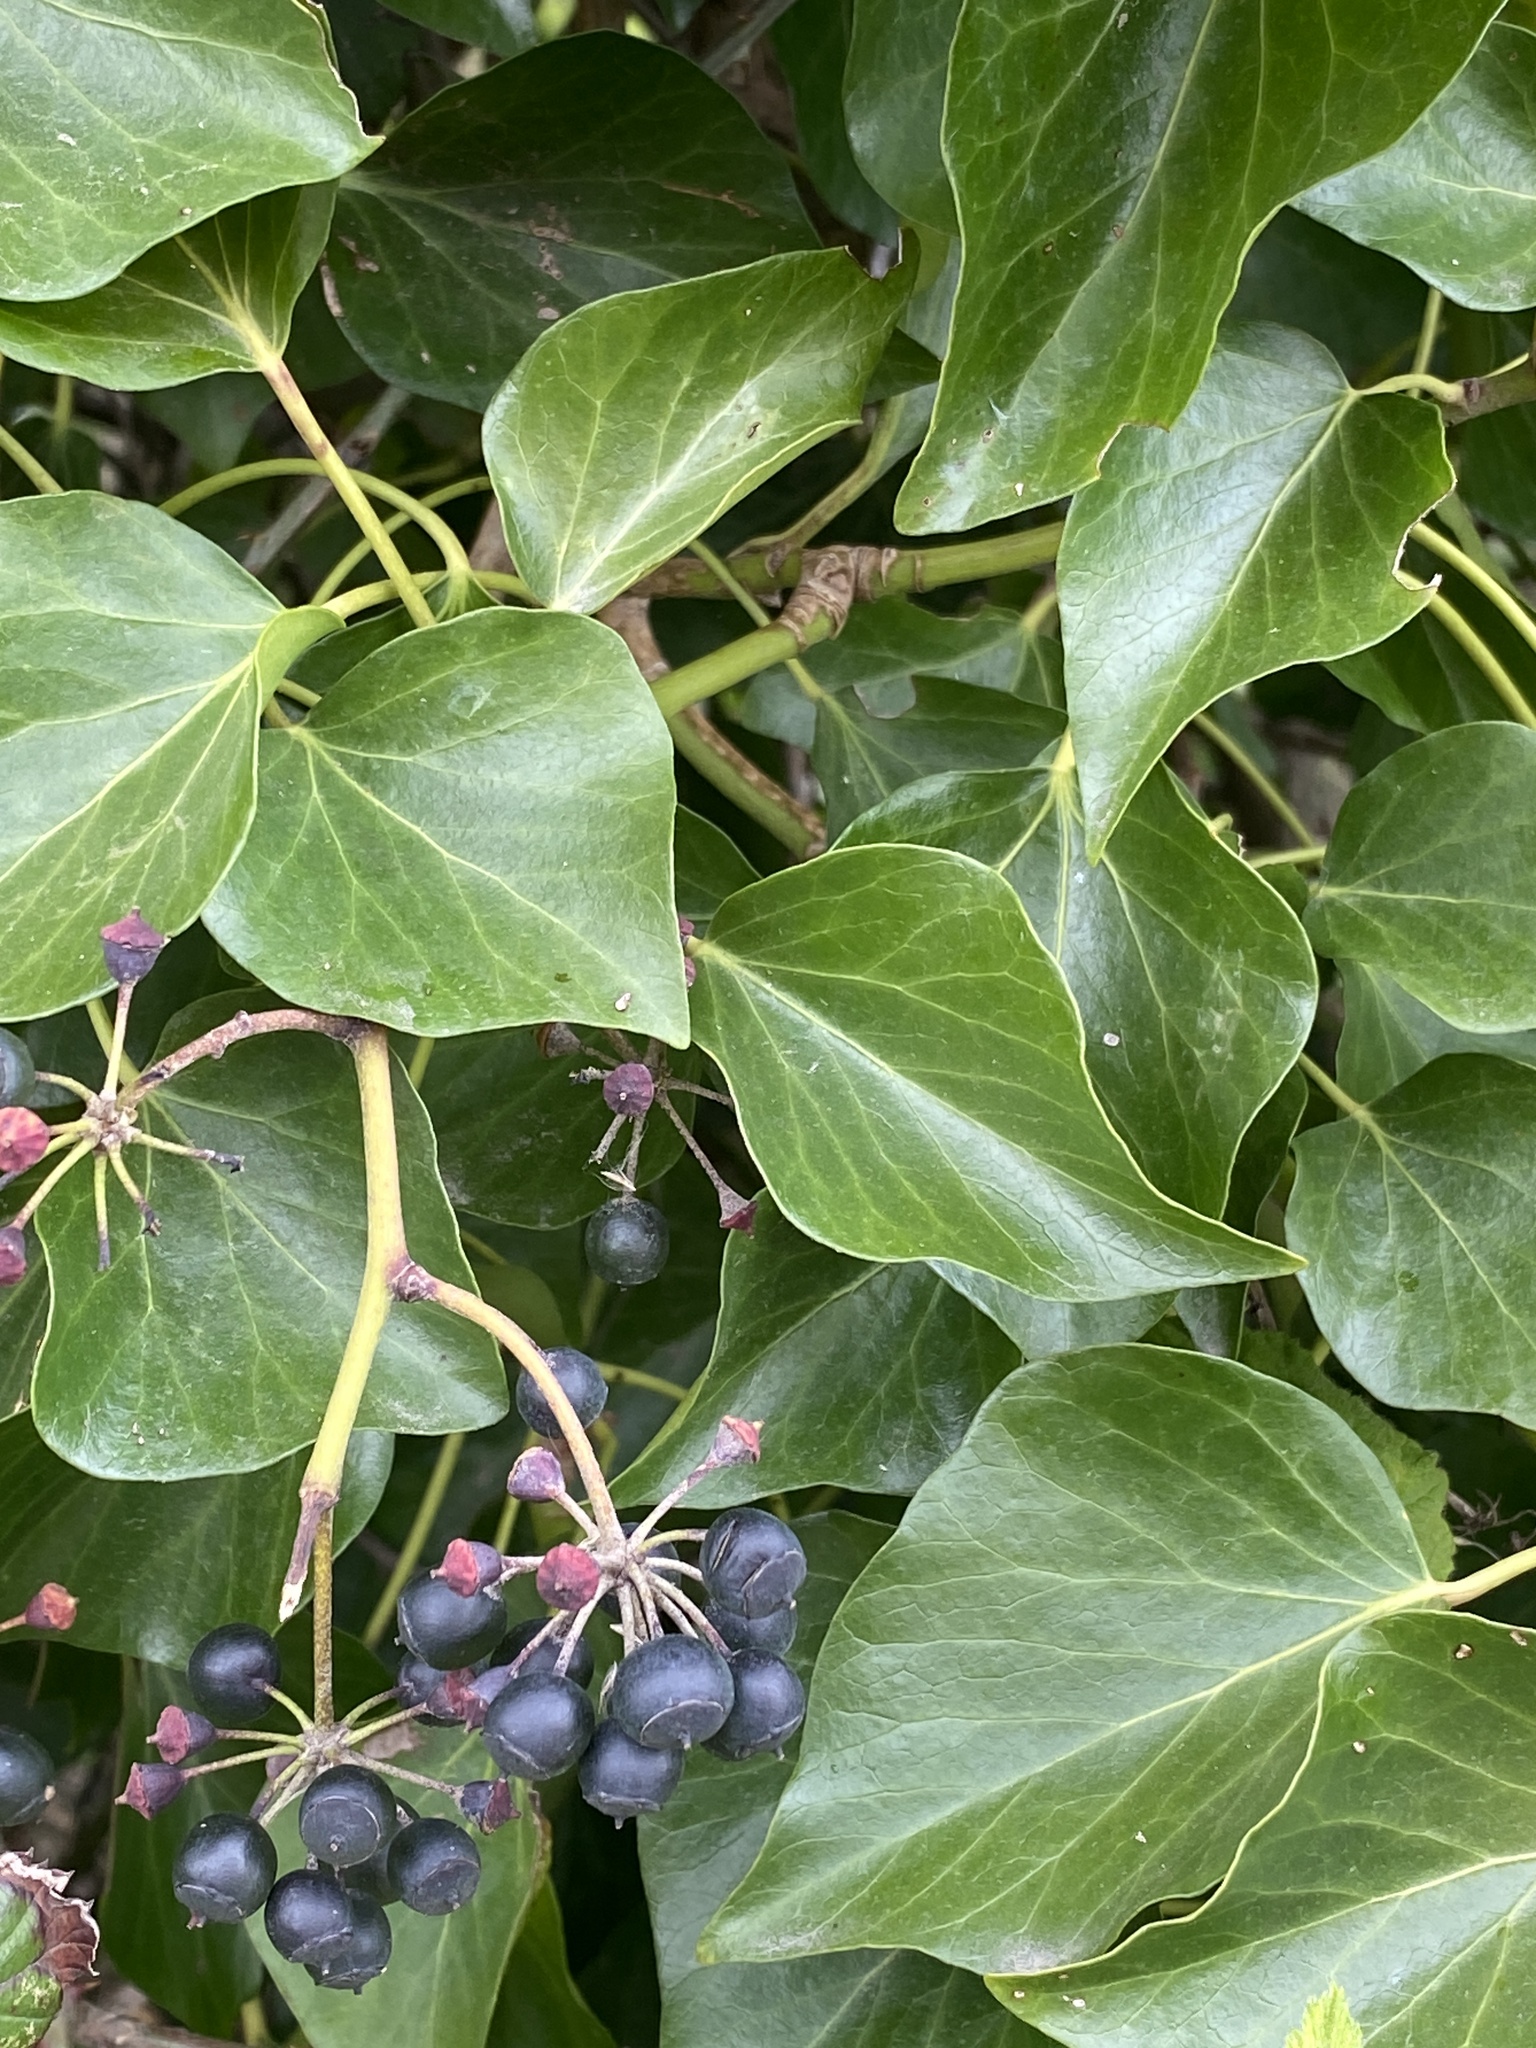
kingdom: Plantae
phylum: Tracheophyta
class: Magnoliopsida
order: Apiales
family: Araliaceae
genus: Hedera
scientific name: Hedera helix
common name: Ivy
